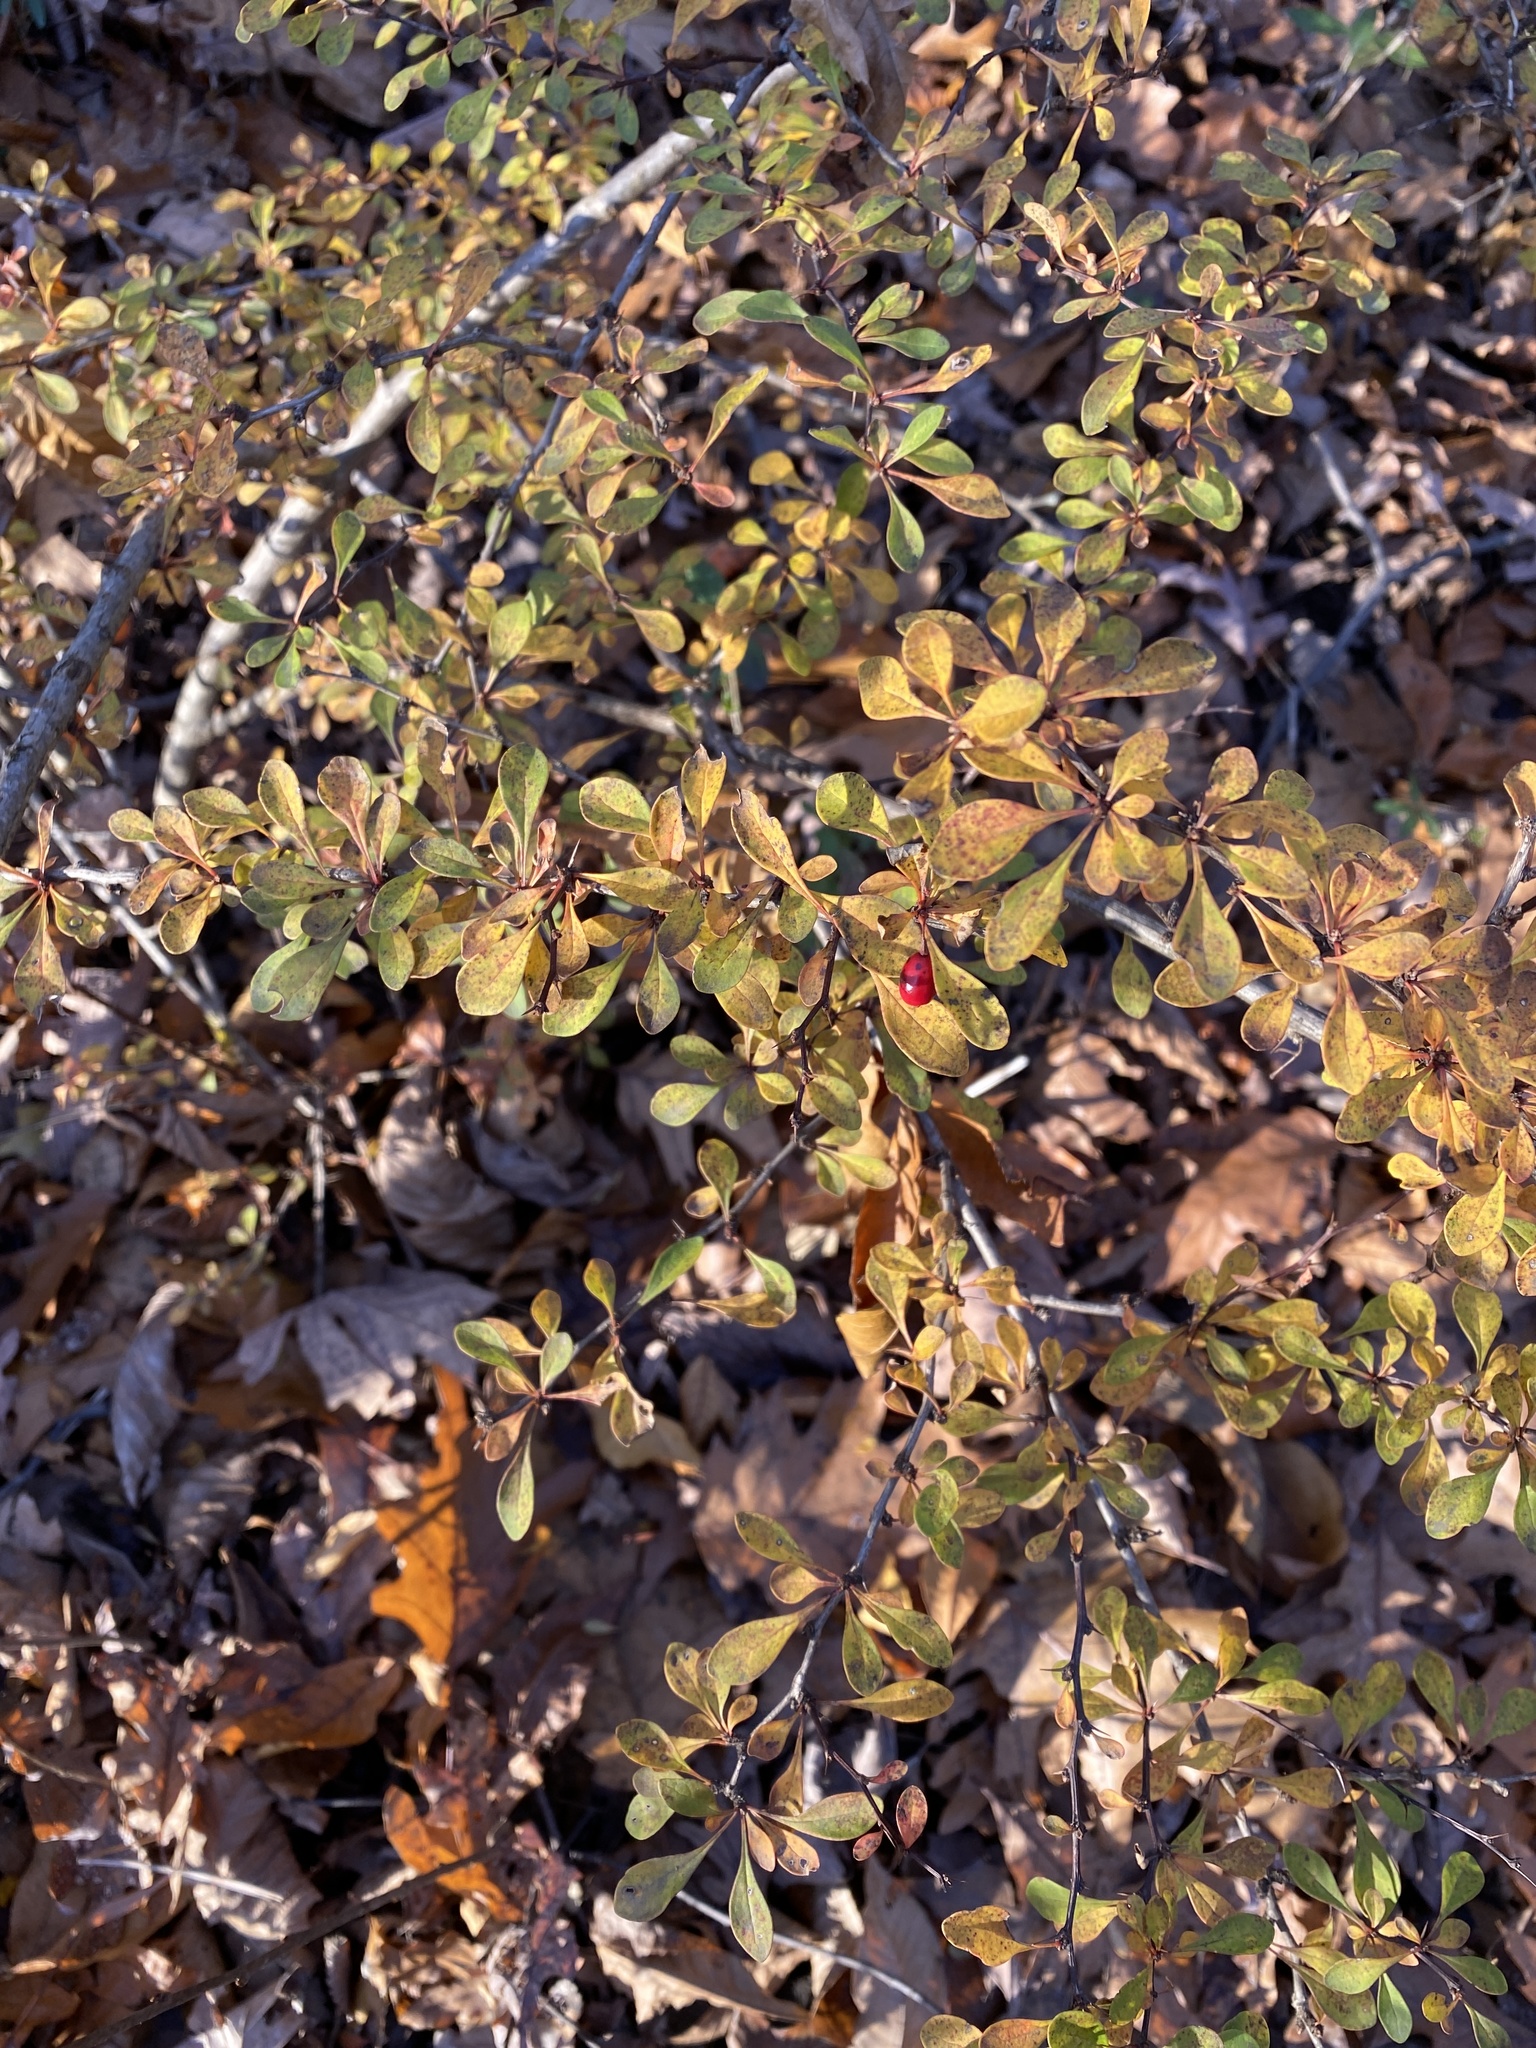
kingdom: Plantae
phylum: Tracheophyta
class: Magnoliopsida
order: Ranunculales
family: Berberidaceae
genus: Berberis
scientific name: Berberis thunbergii
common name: Japanese barberry
